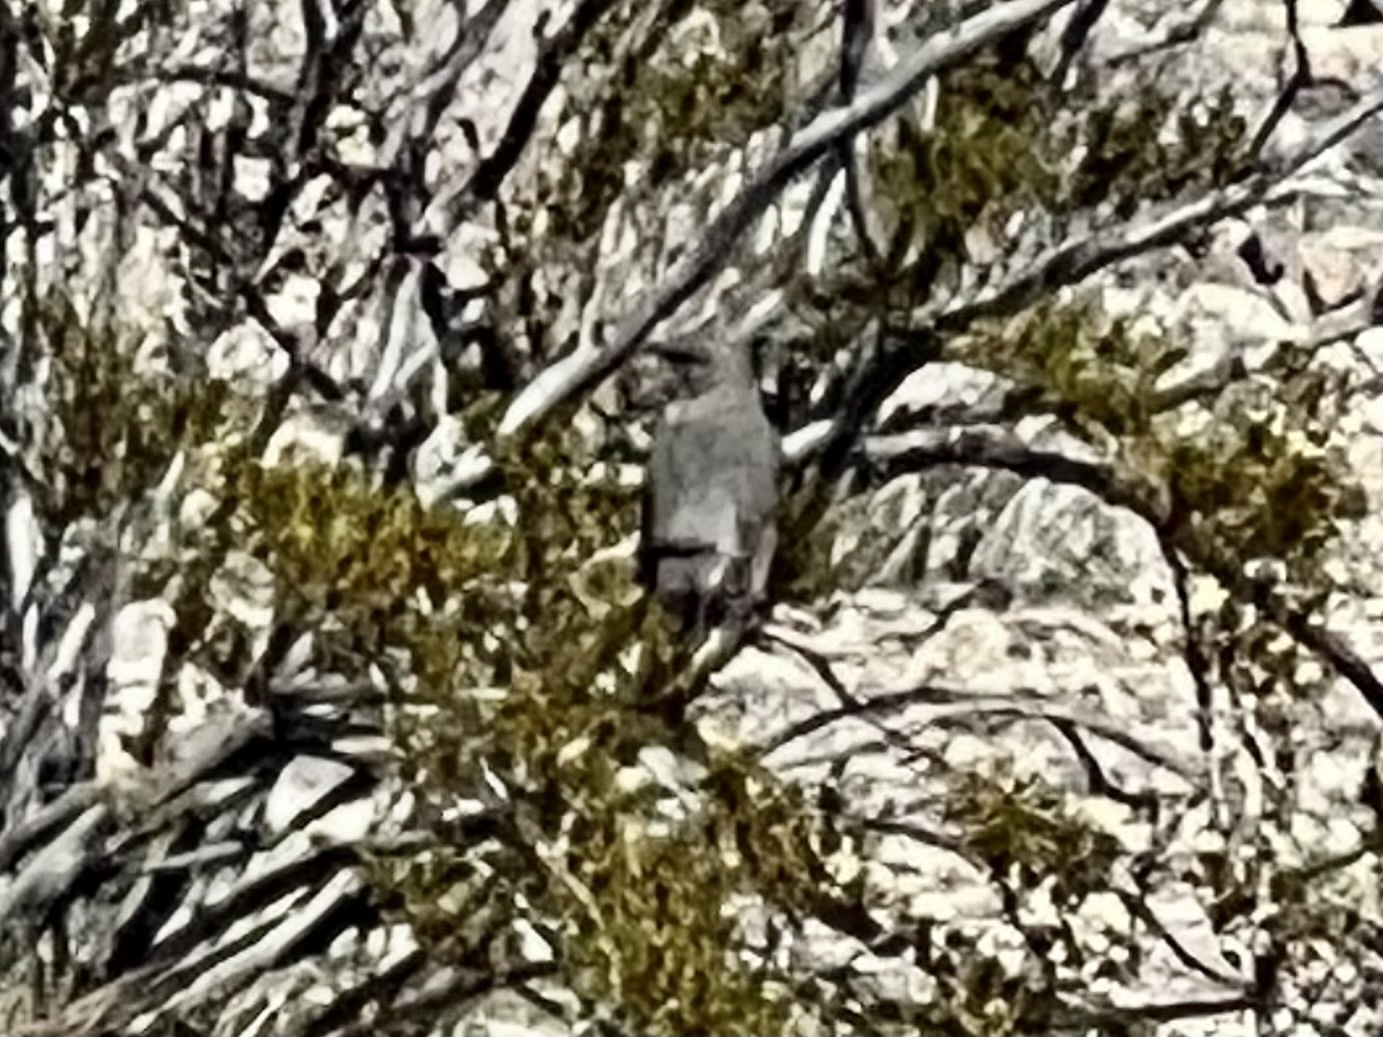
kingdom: Animalia
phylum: Chordata
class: Aves
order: Passeriformes
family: Mimidae
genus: Mimus
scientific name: Mimus polyglottos
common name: Northern mockingbird
